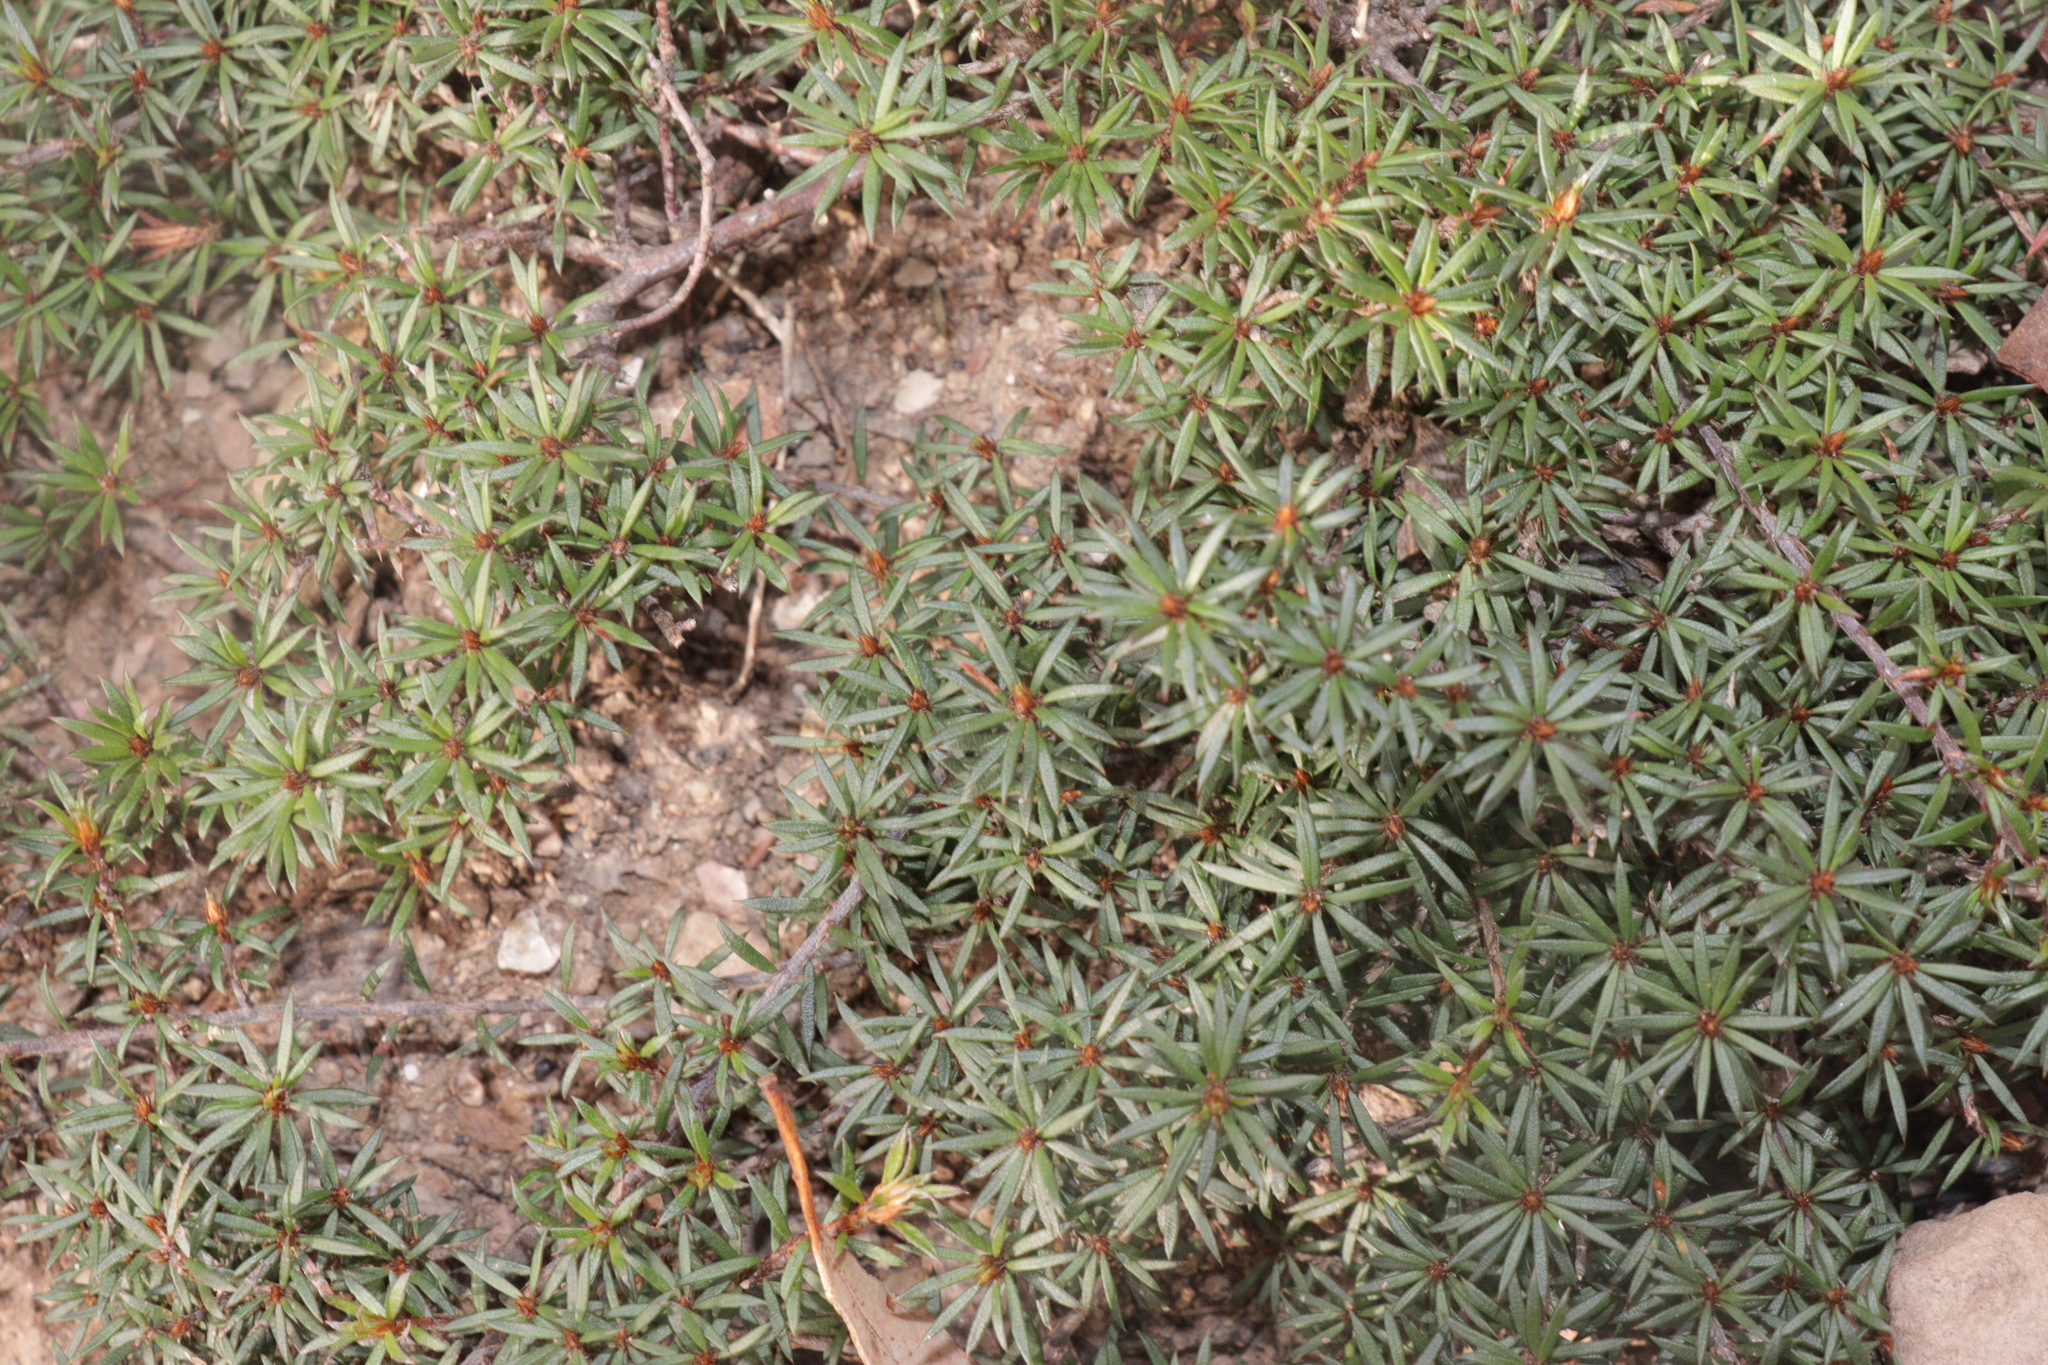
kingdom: Plantae
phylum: Tracheophyta
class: Magnoliopsida
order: Fabales
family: Fabaceae
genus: Pultenaea
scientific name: Pultenaea pedunculata
